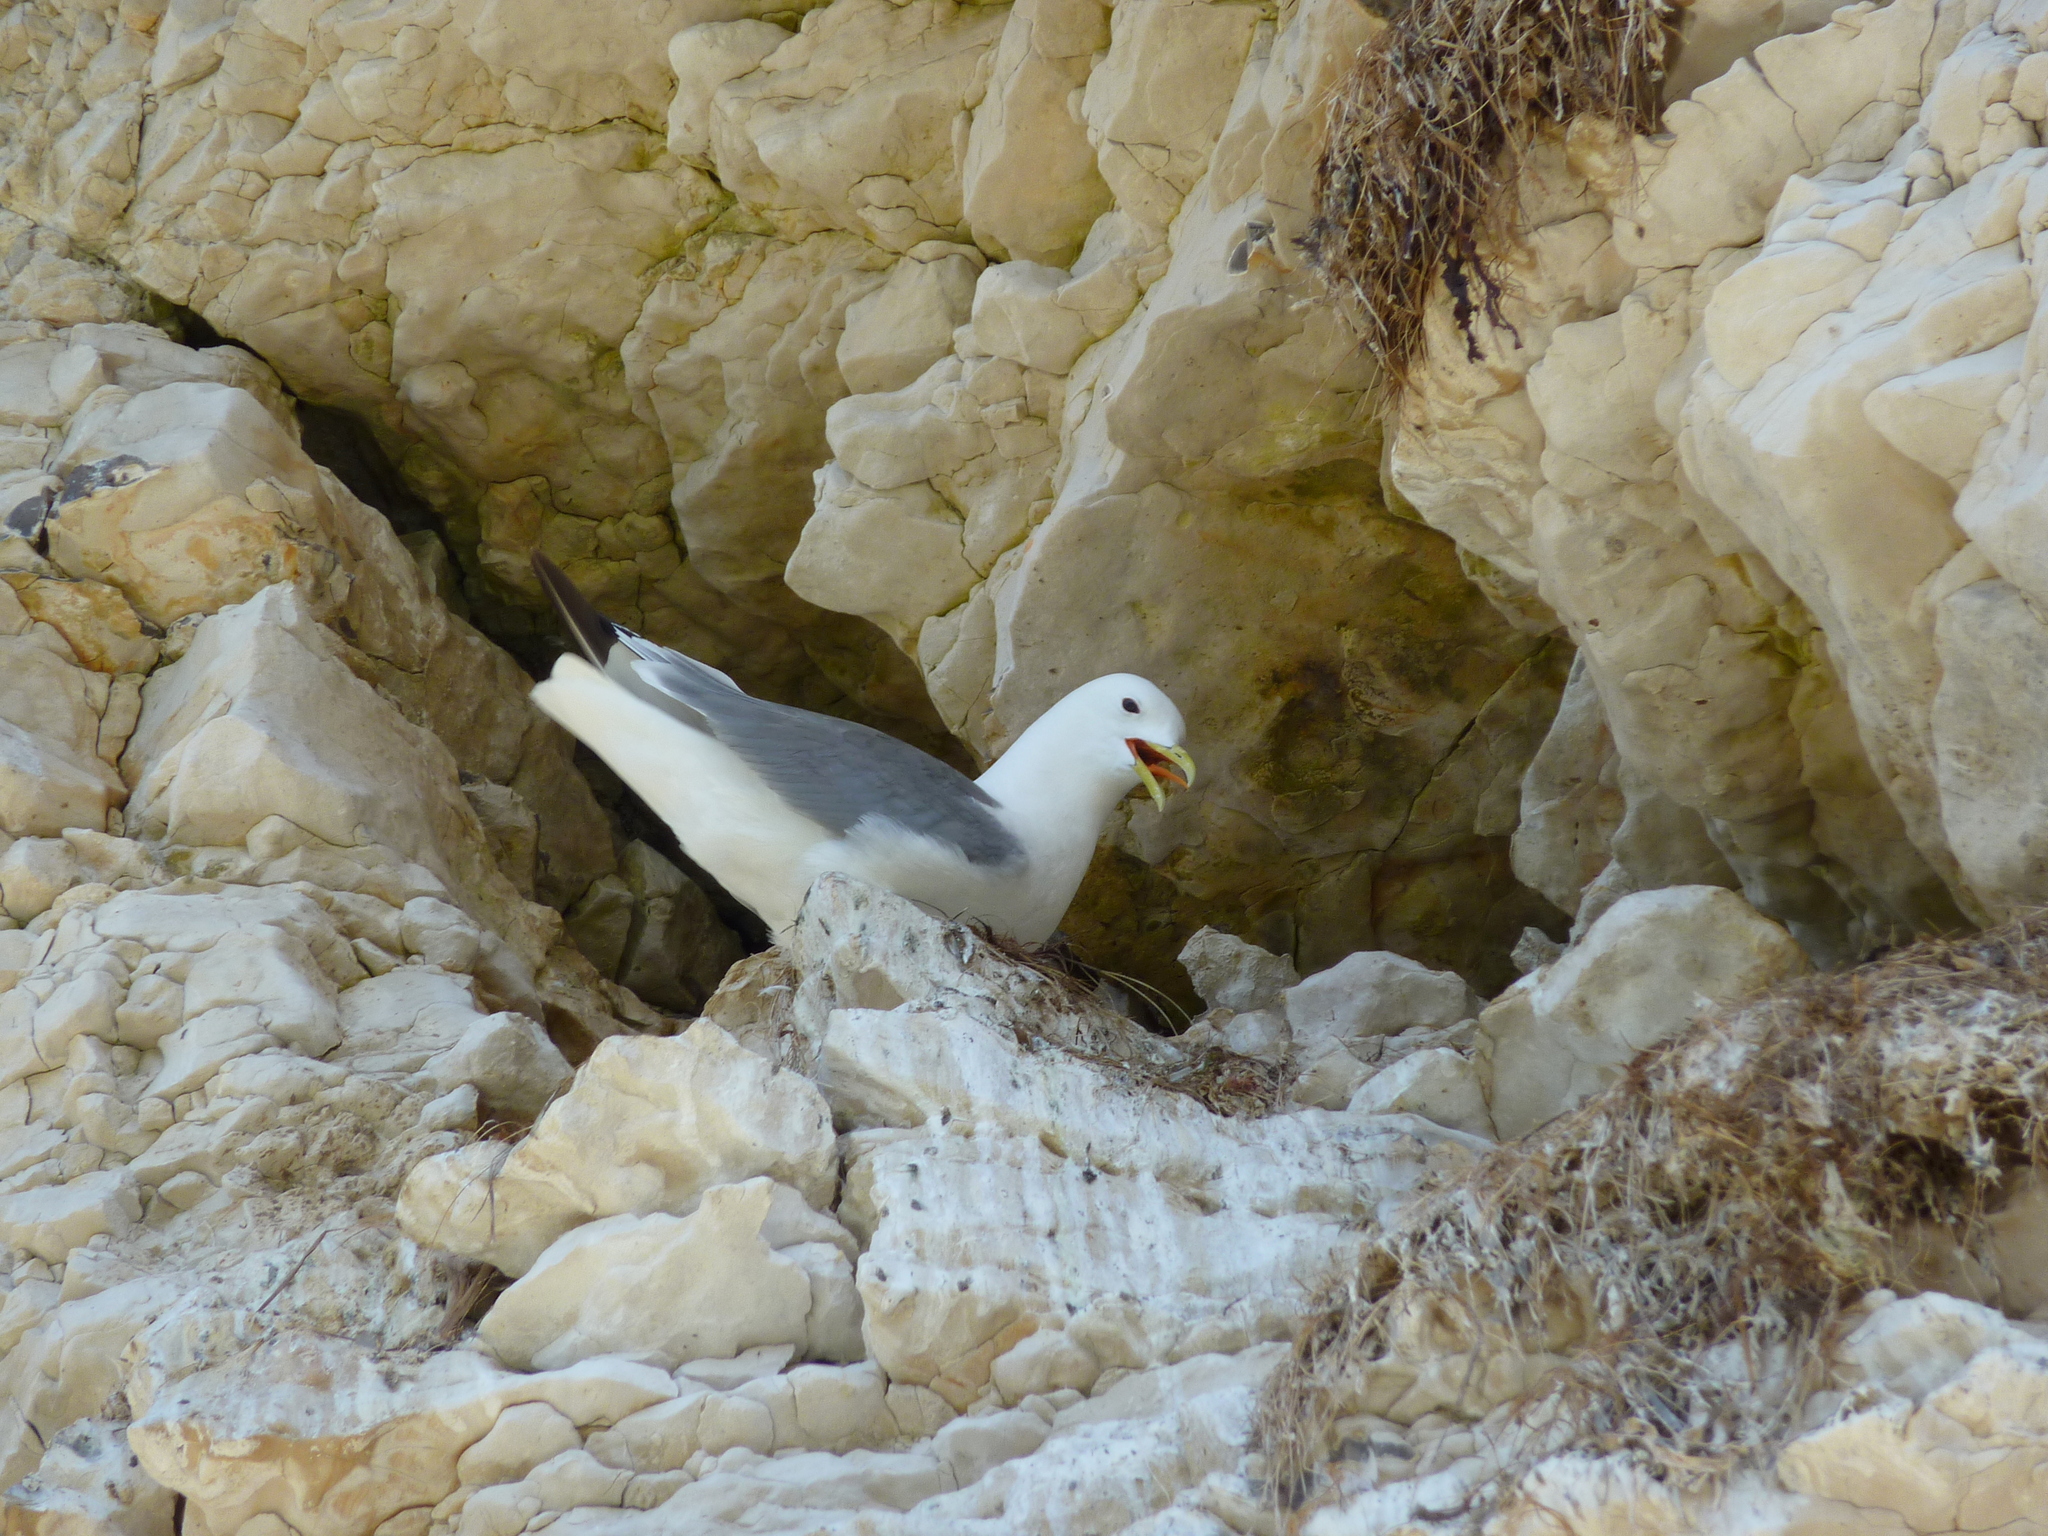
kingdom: Animalia
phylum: Chordata
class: Aves
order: Charadriiformes
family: Laridae
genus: Rissa
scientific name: Rissa tridactyla
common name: Black-legged kittiwake
